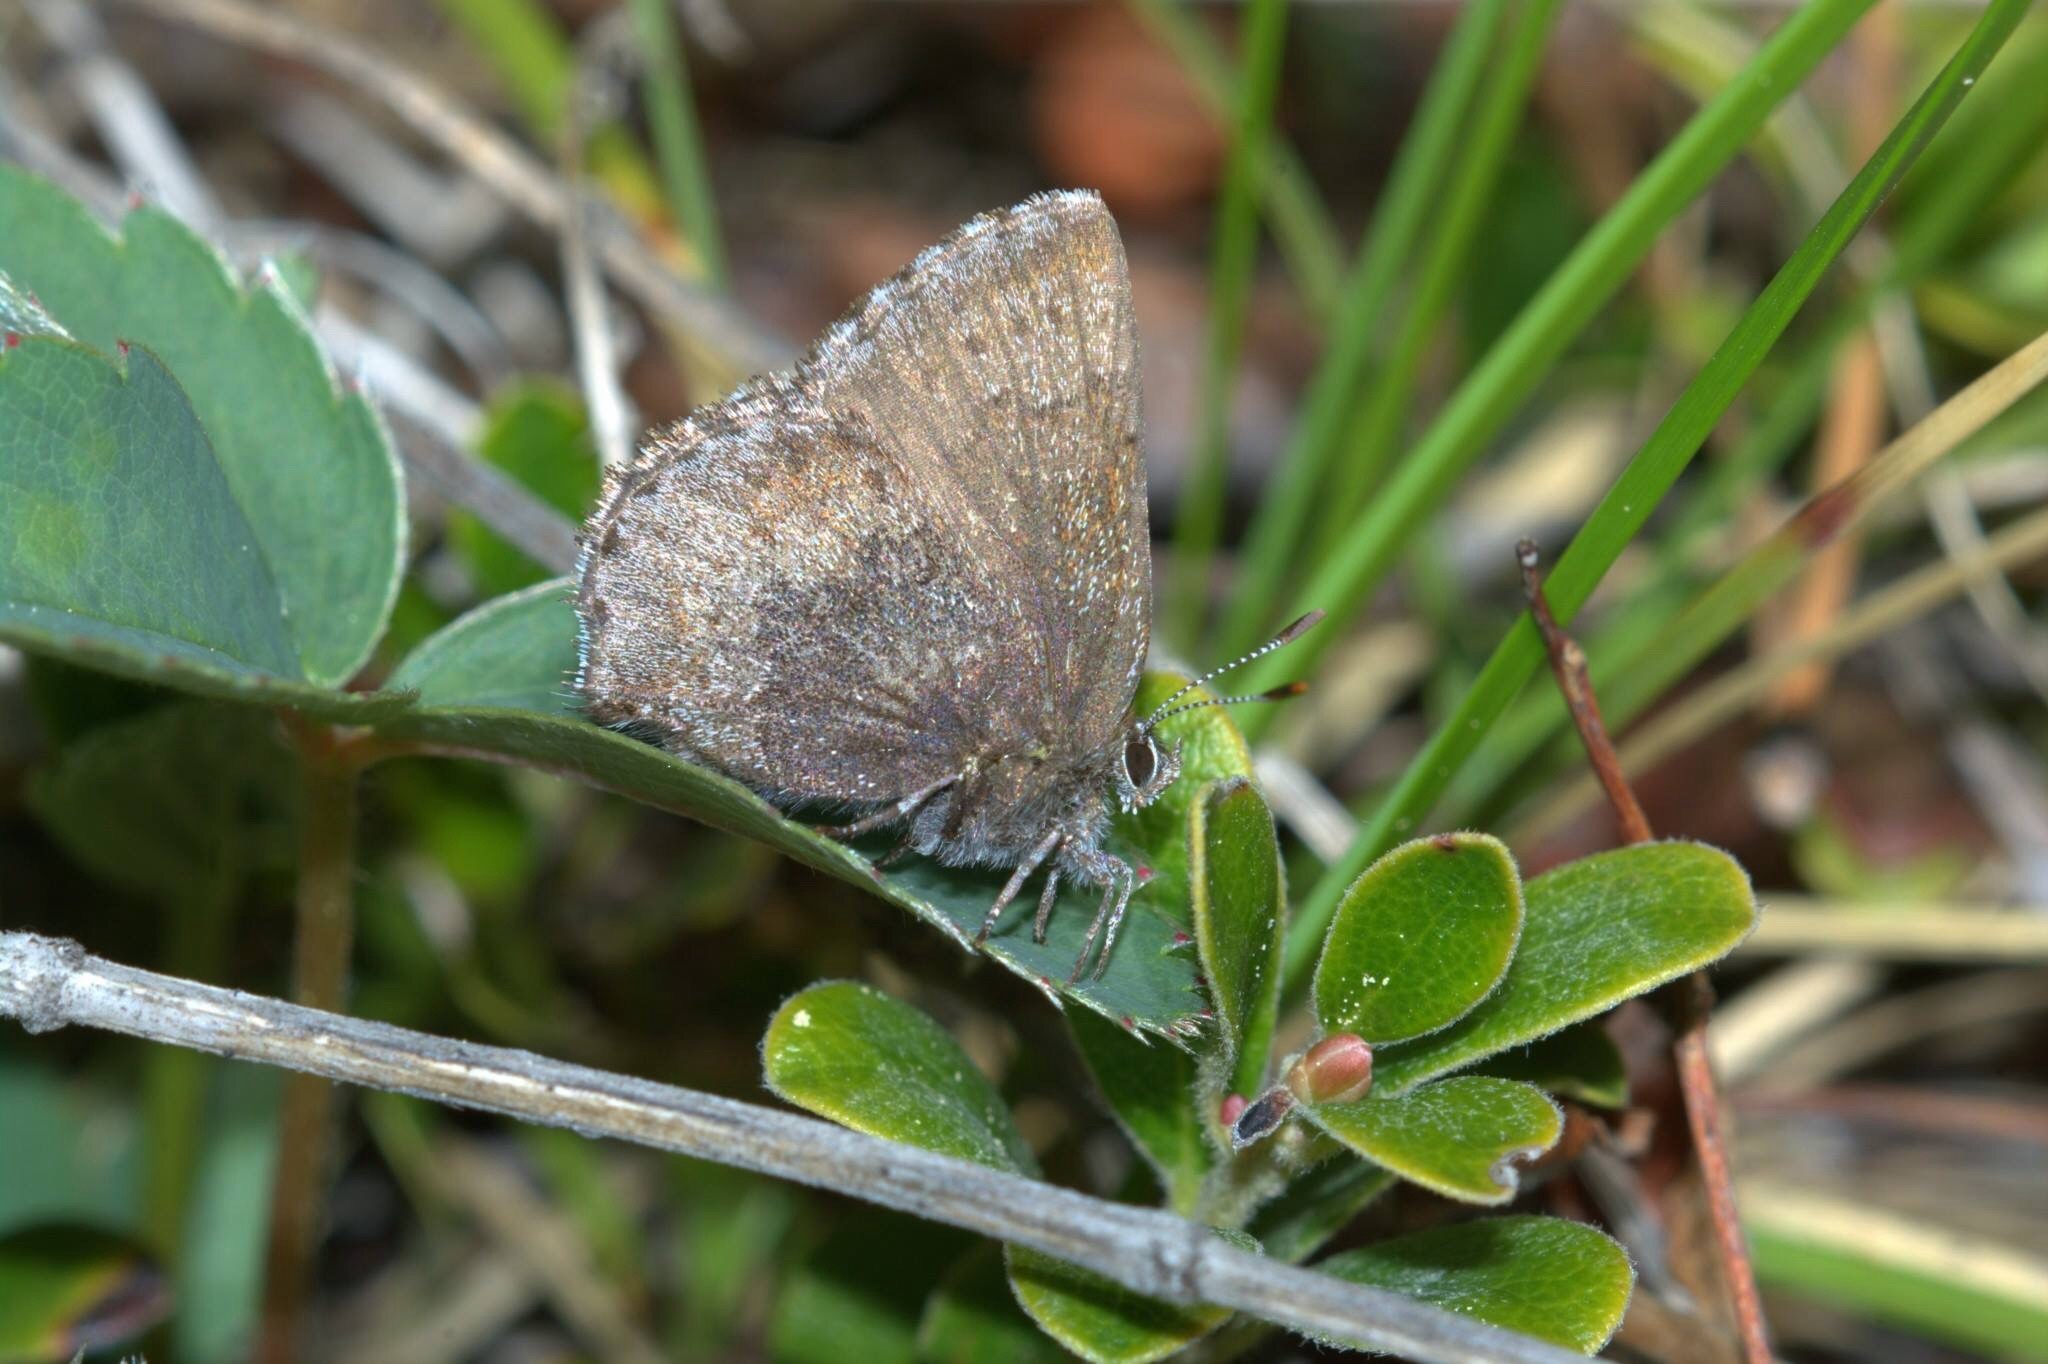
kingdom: Animalia
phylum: Arthropoda
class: Insecta
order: Lepidoptera
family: Lycaenidae
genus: Callophrys
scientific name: Callophrys polios
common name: Hoary elfin
